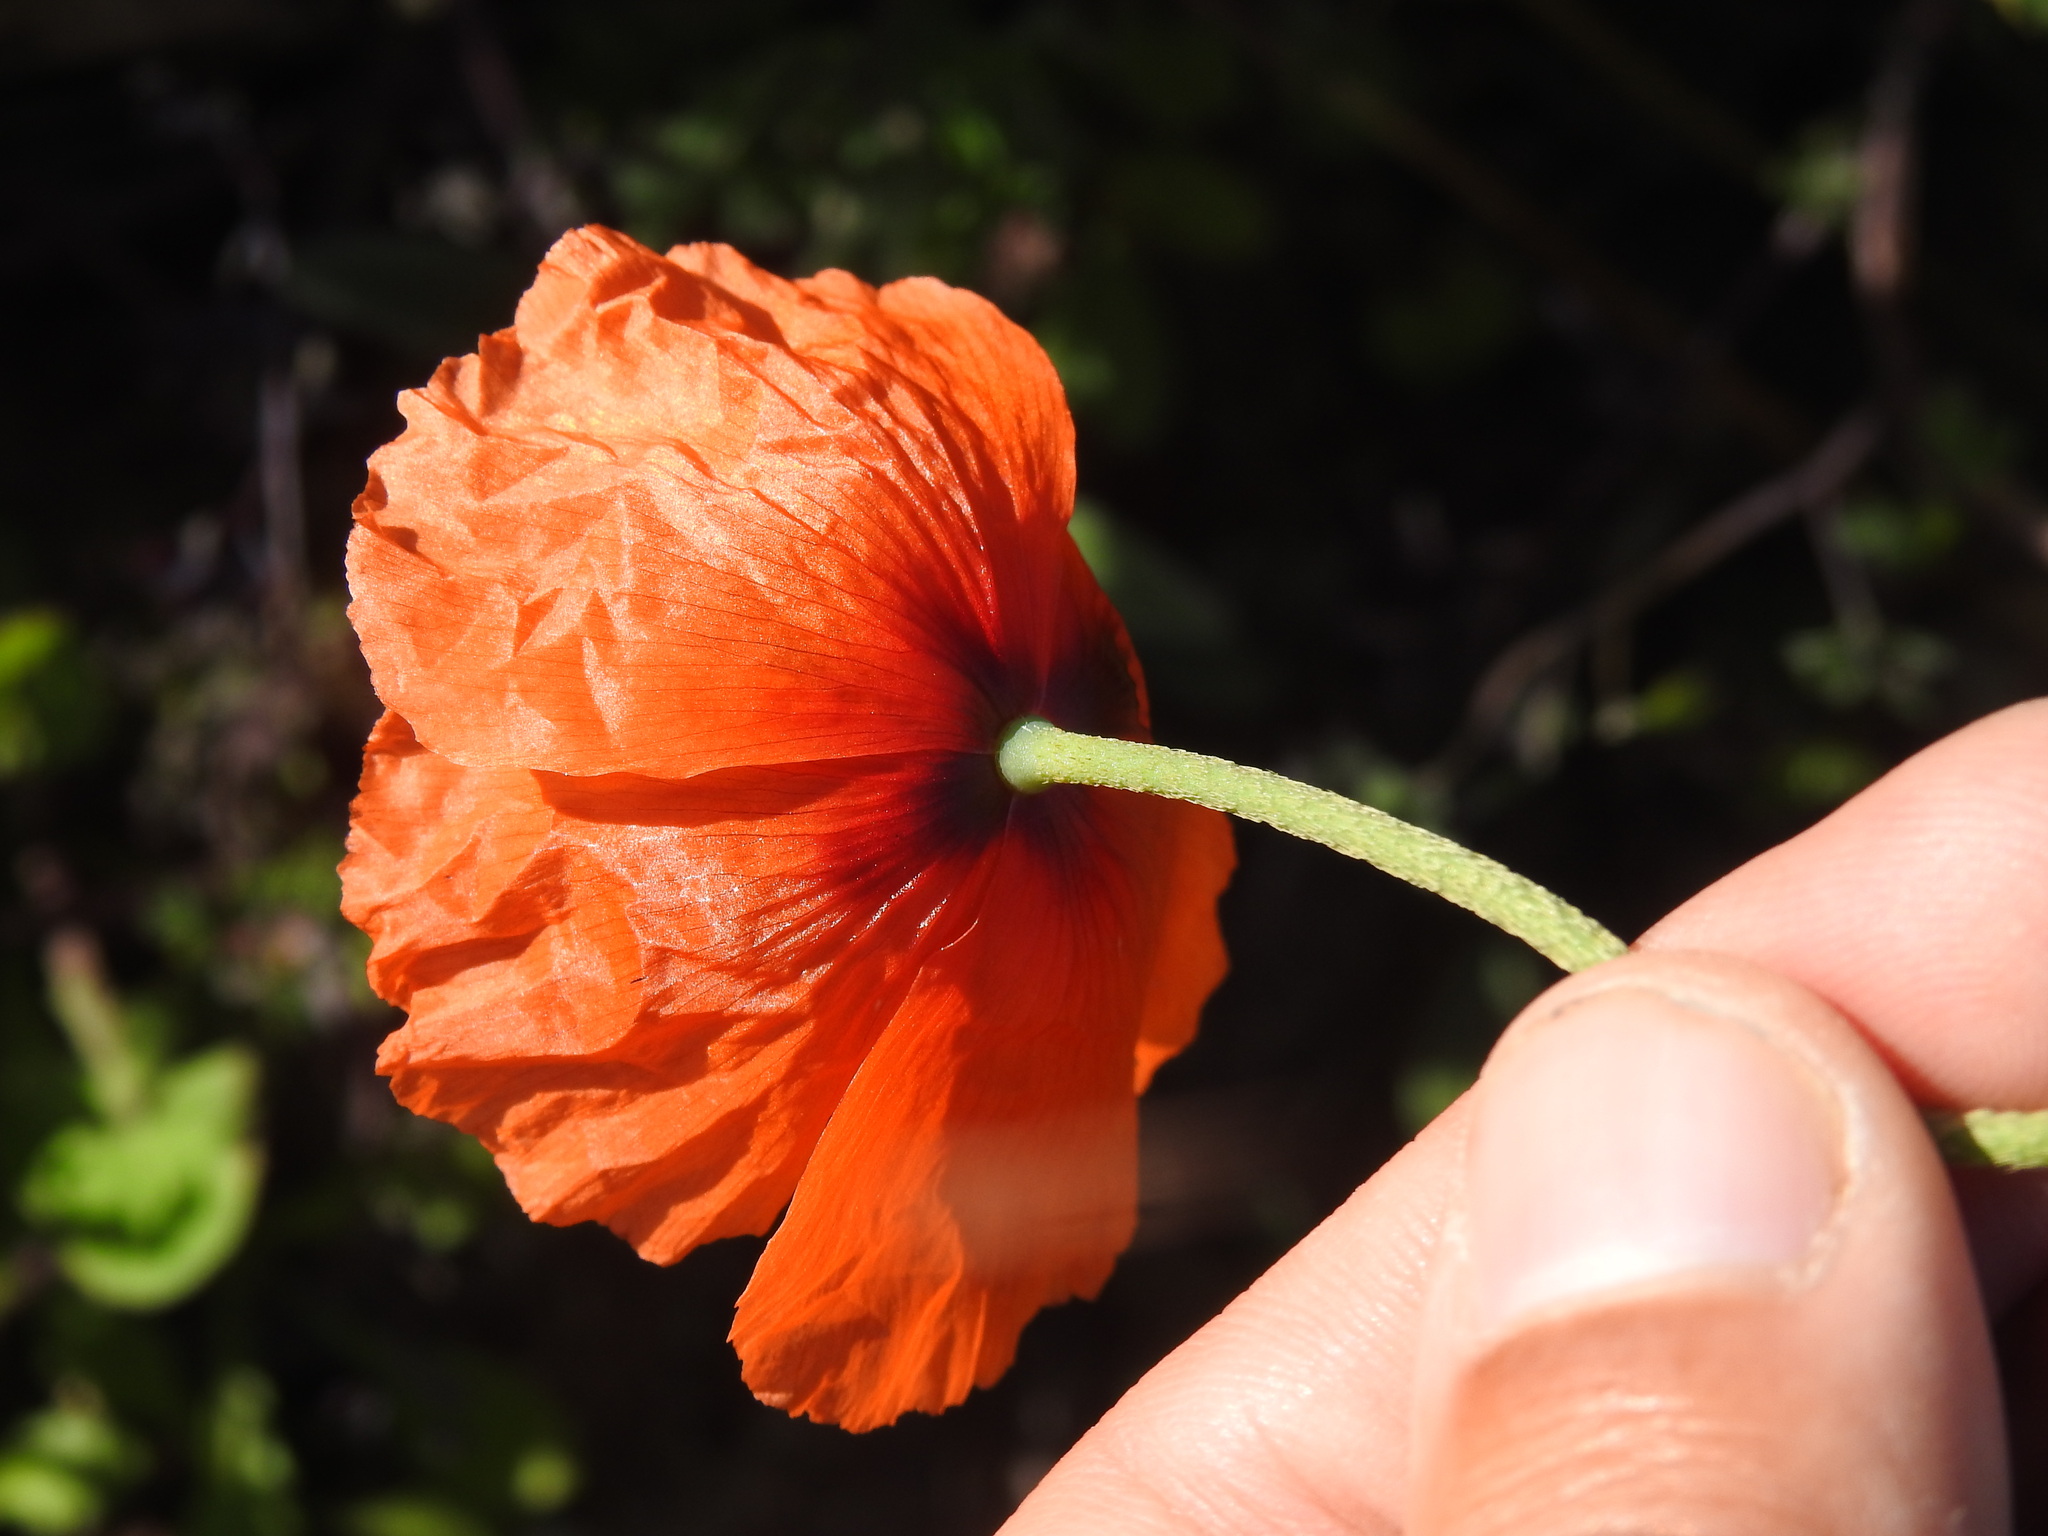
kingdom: Plantae
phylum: Tracheophyta
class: Magnoliopsida
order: Ranunculales
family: Papaveraceae
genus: Papaver
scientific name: Papaver dubium
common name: Long-headed poppy
